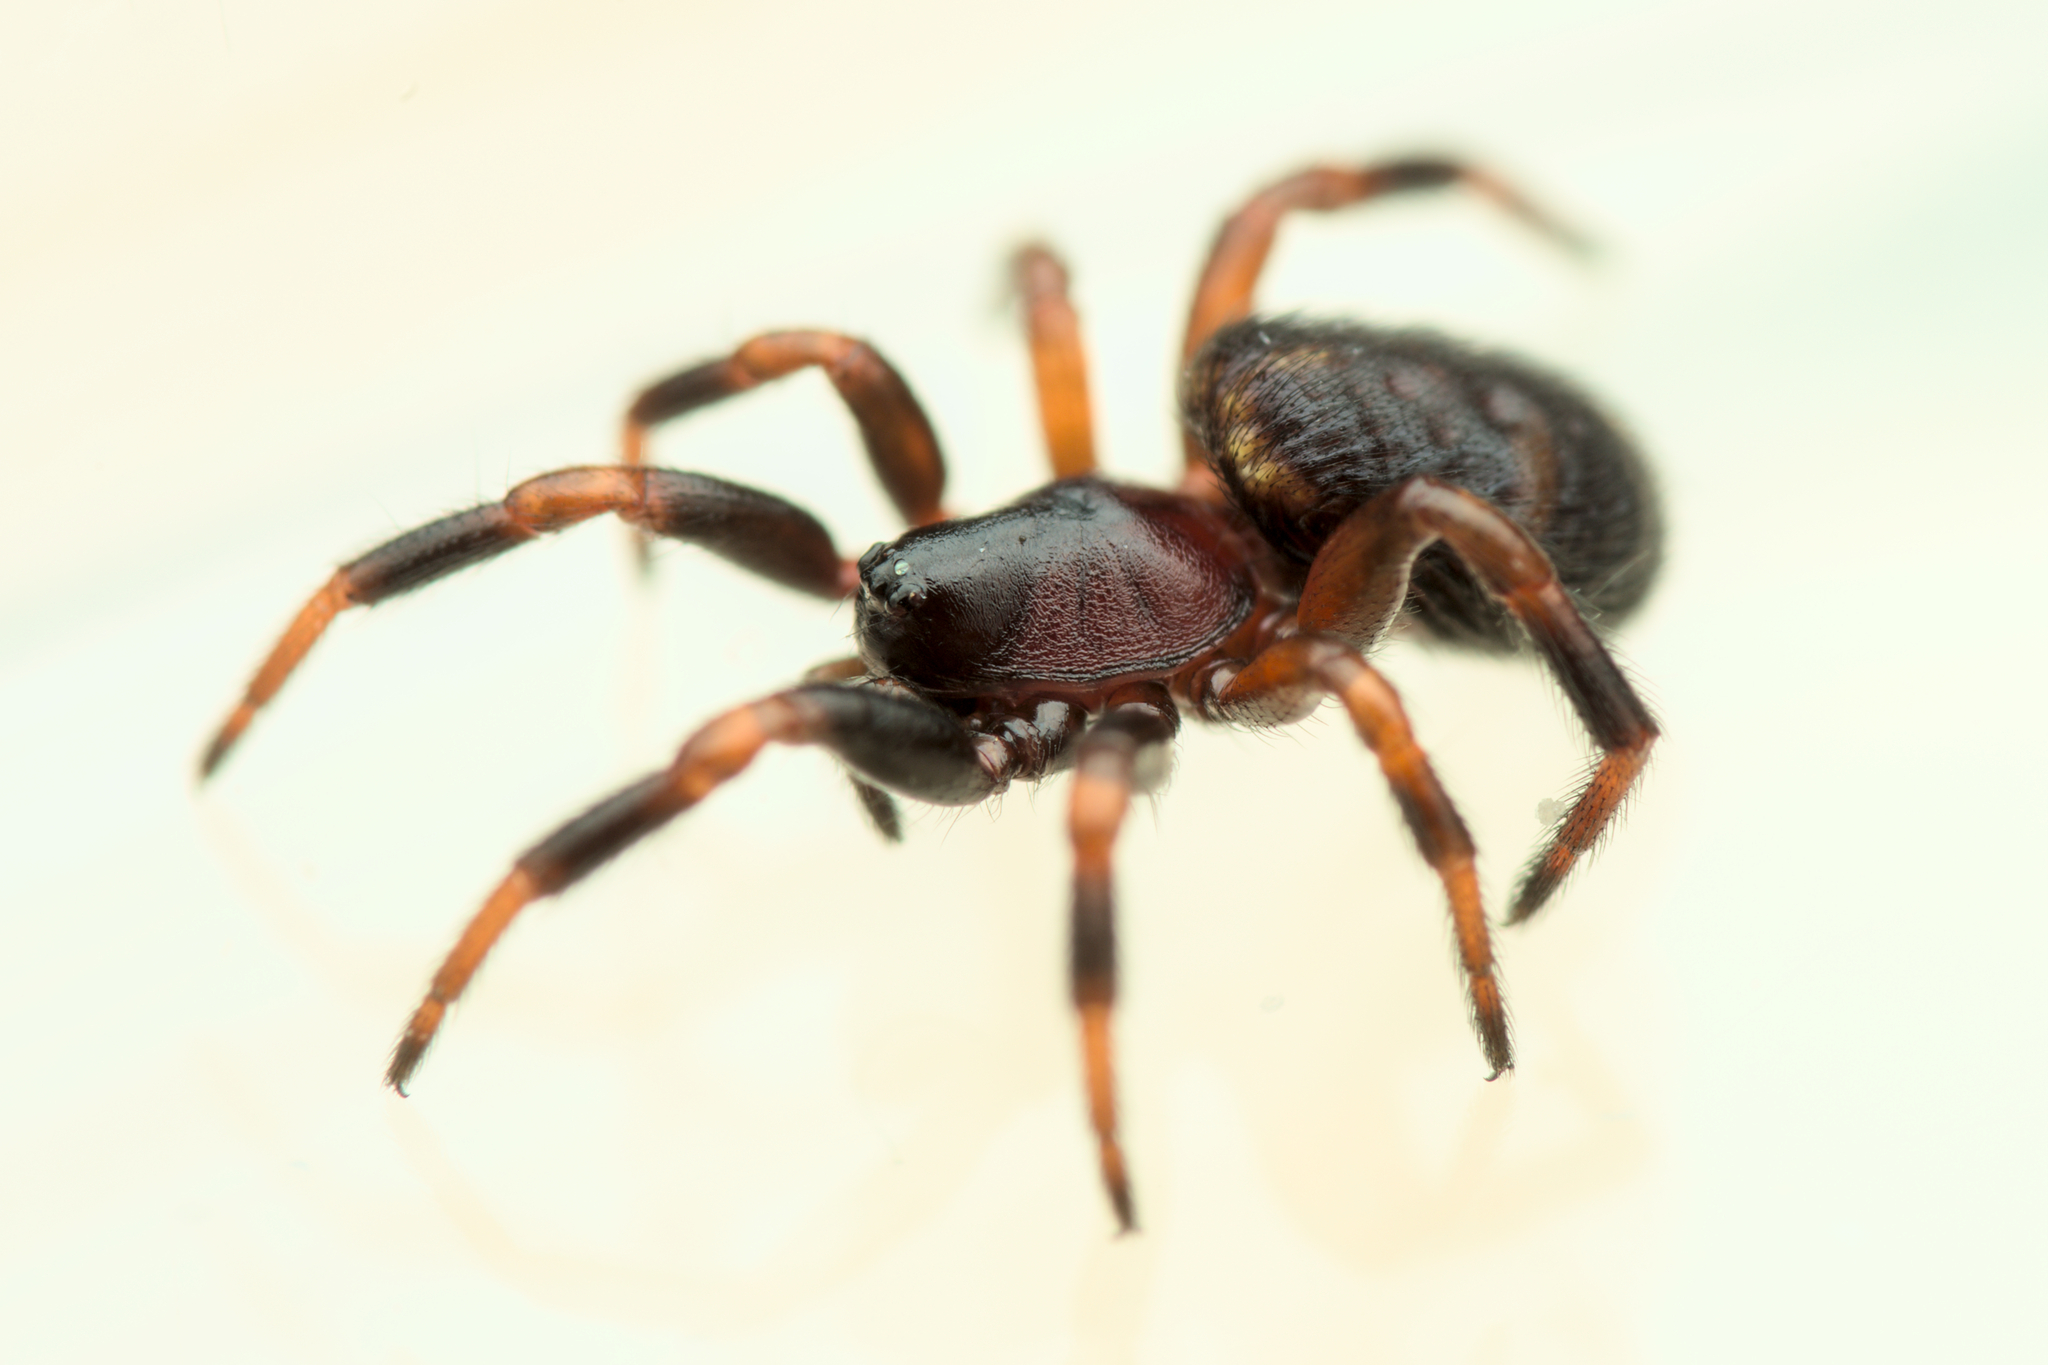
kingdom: Animalia
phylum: Arthropoda
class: Arachnida
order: Araneae
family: Theridiidae
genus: Asagena
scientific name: Asagena phalerata
